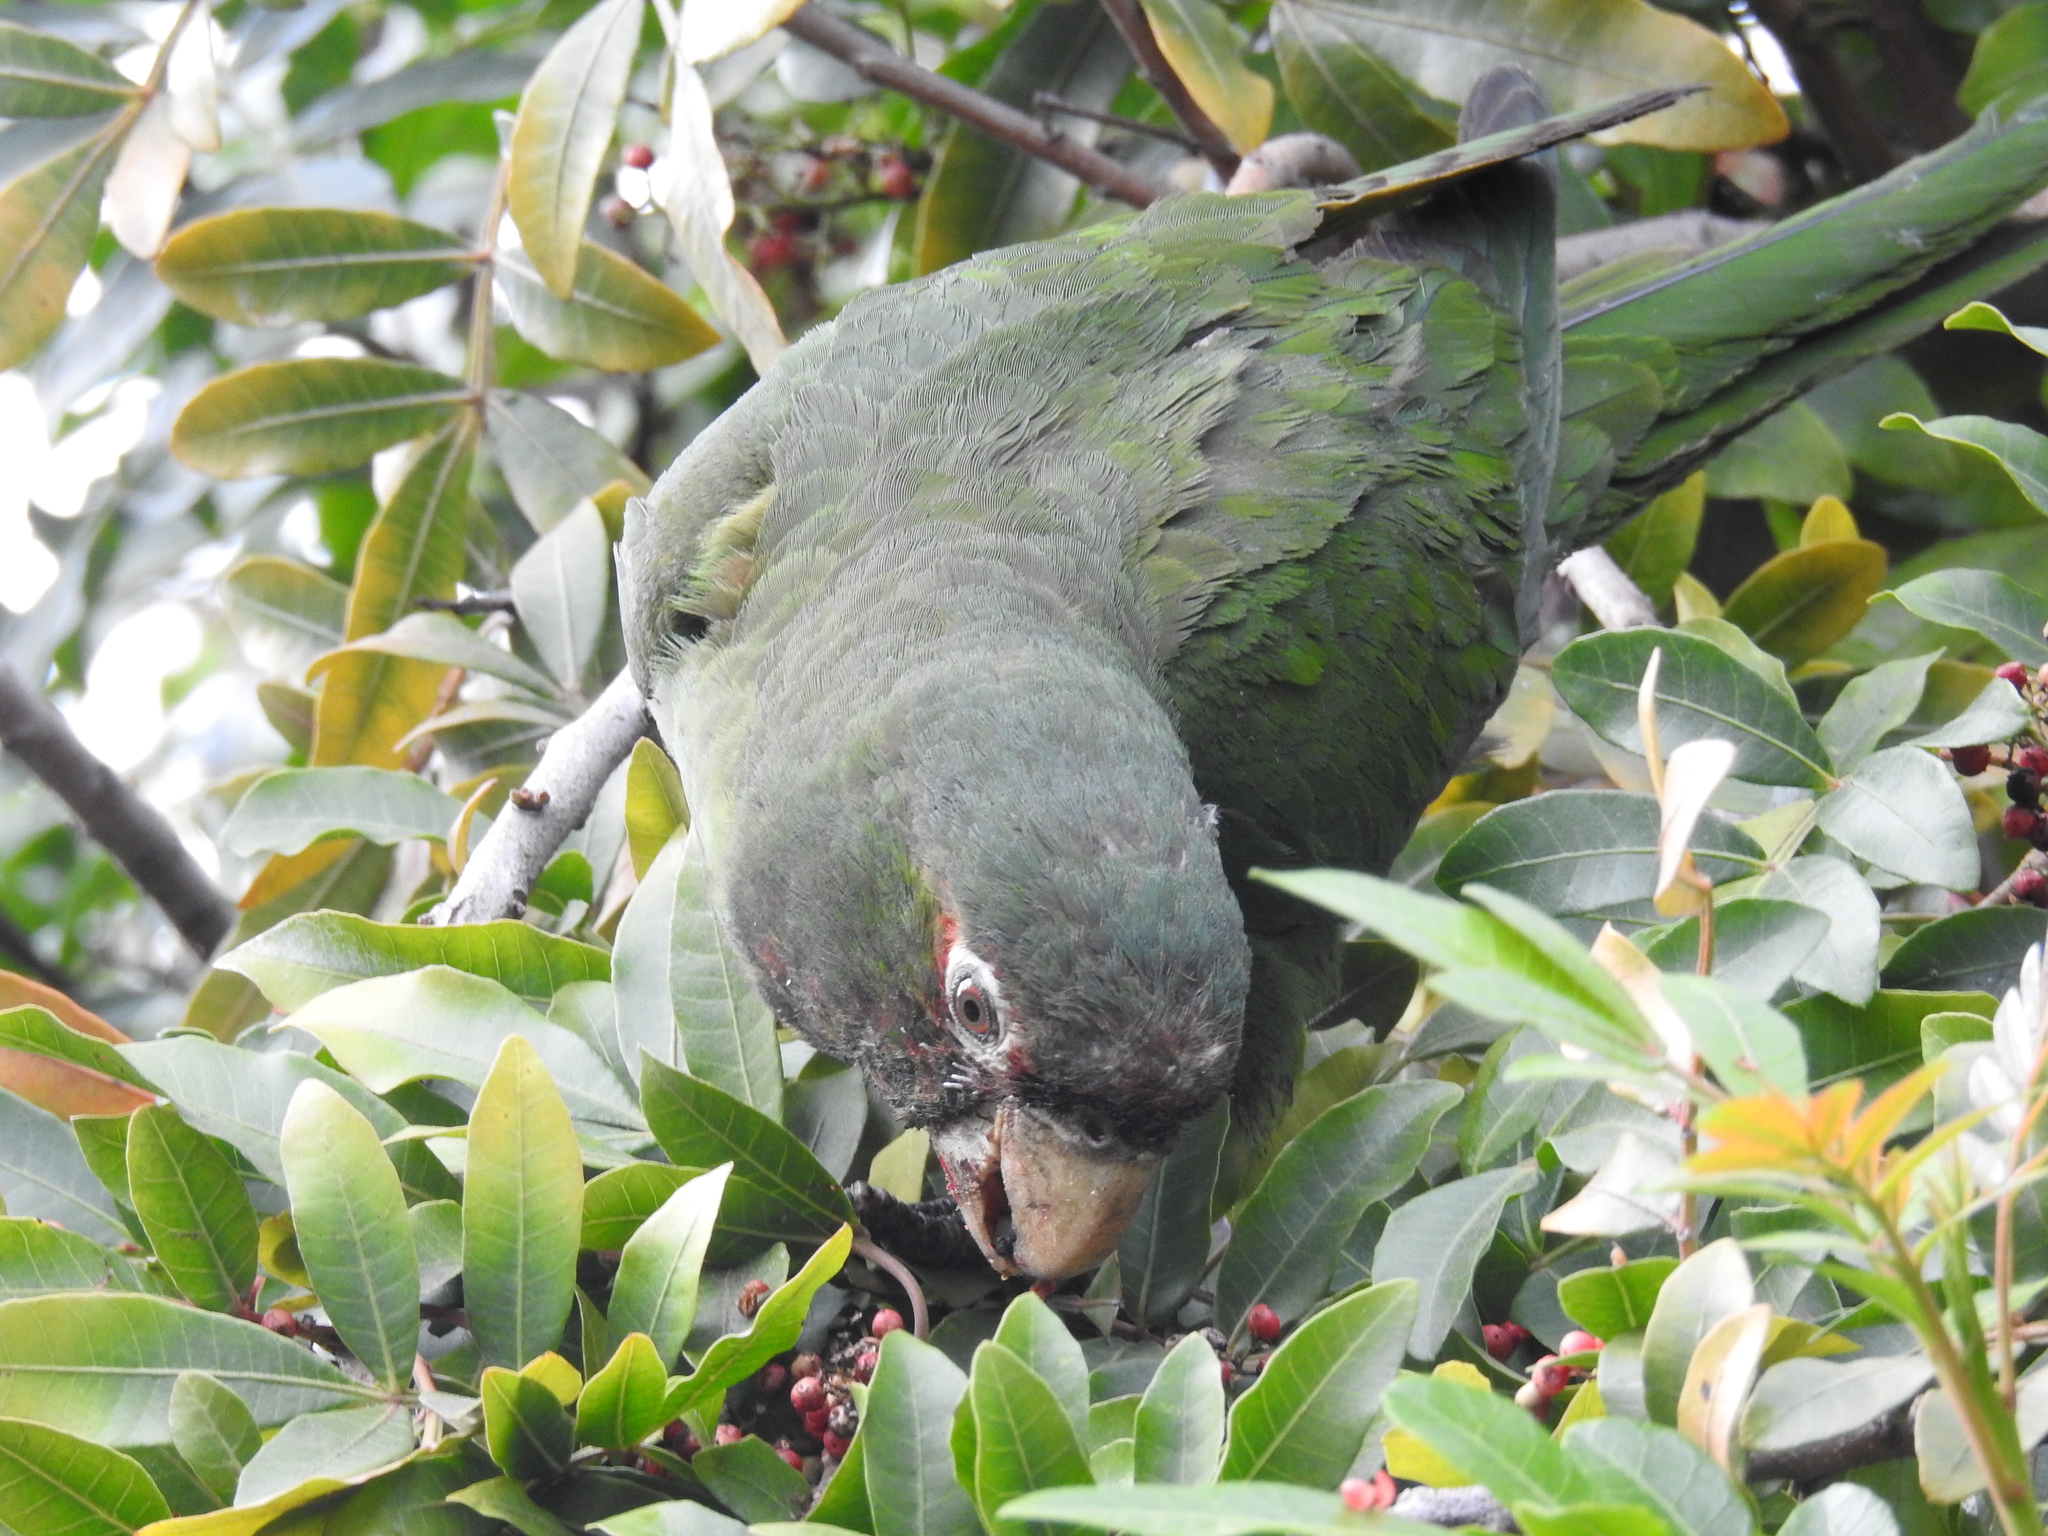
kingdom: Animalia
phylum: Chordata
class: Aves
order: Psittaciformes
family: Psittacidae
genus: Aratinga
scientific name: Aratinga mitrata
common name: Mitred parakeet
